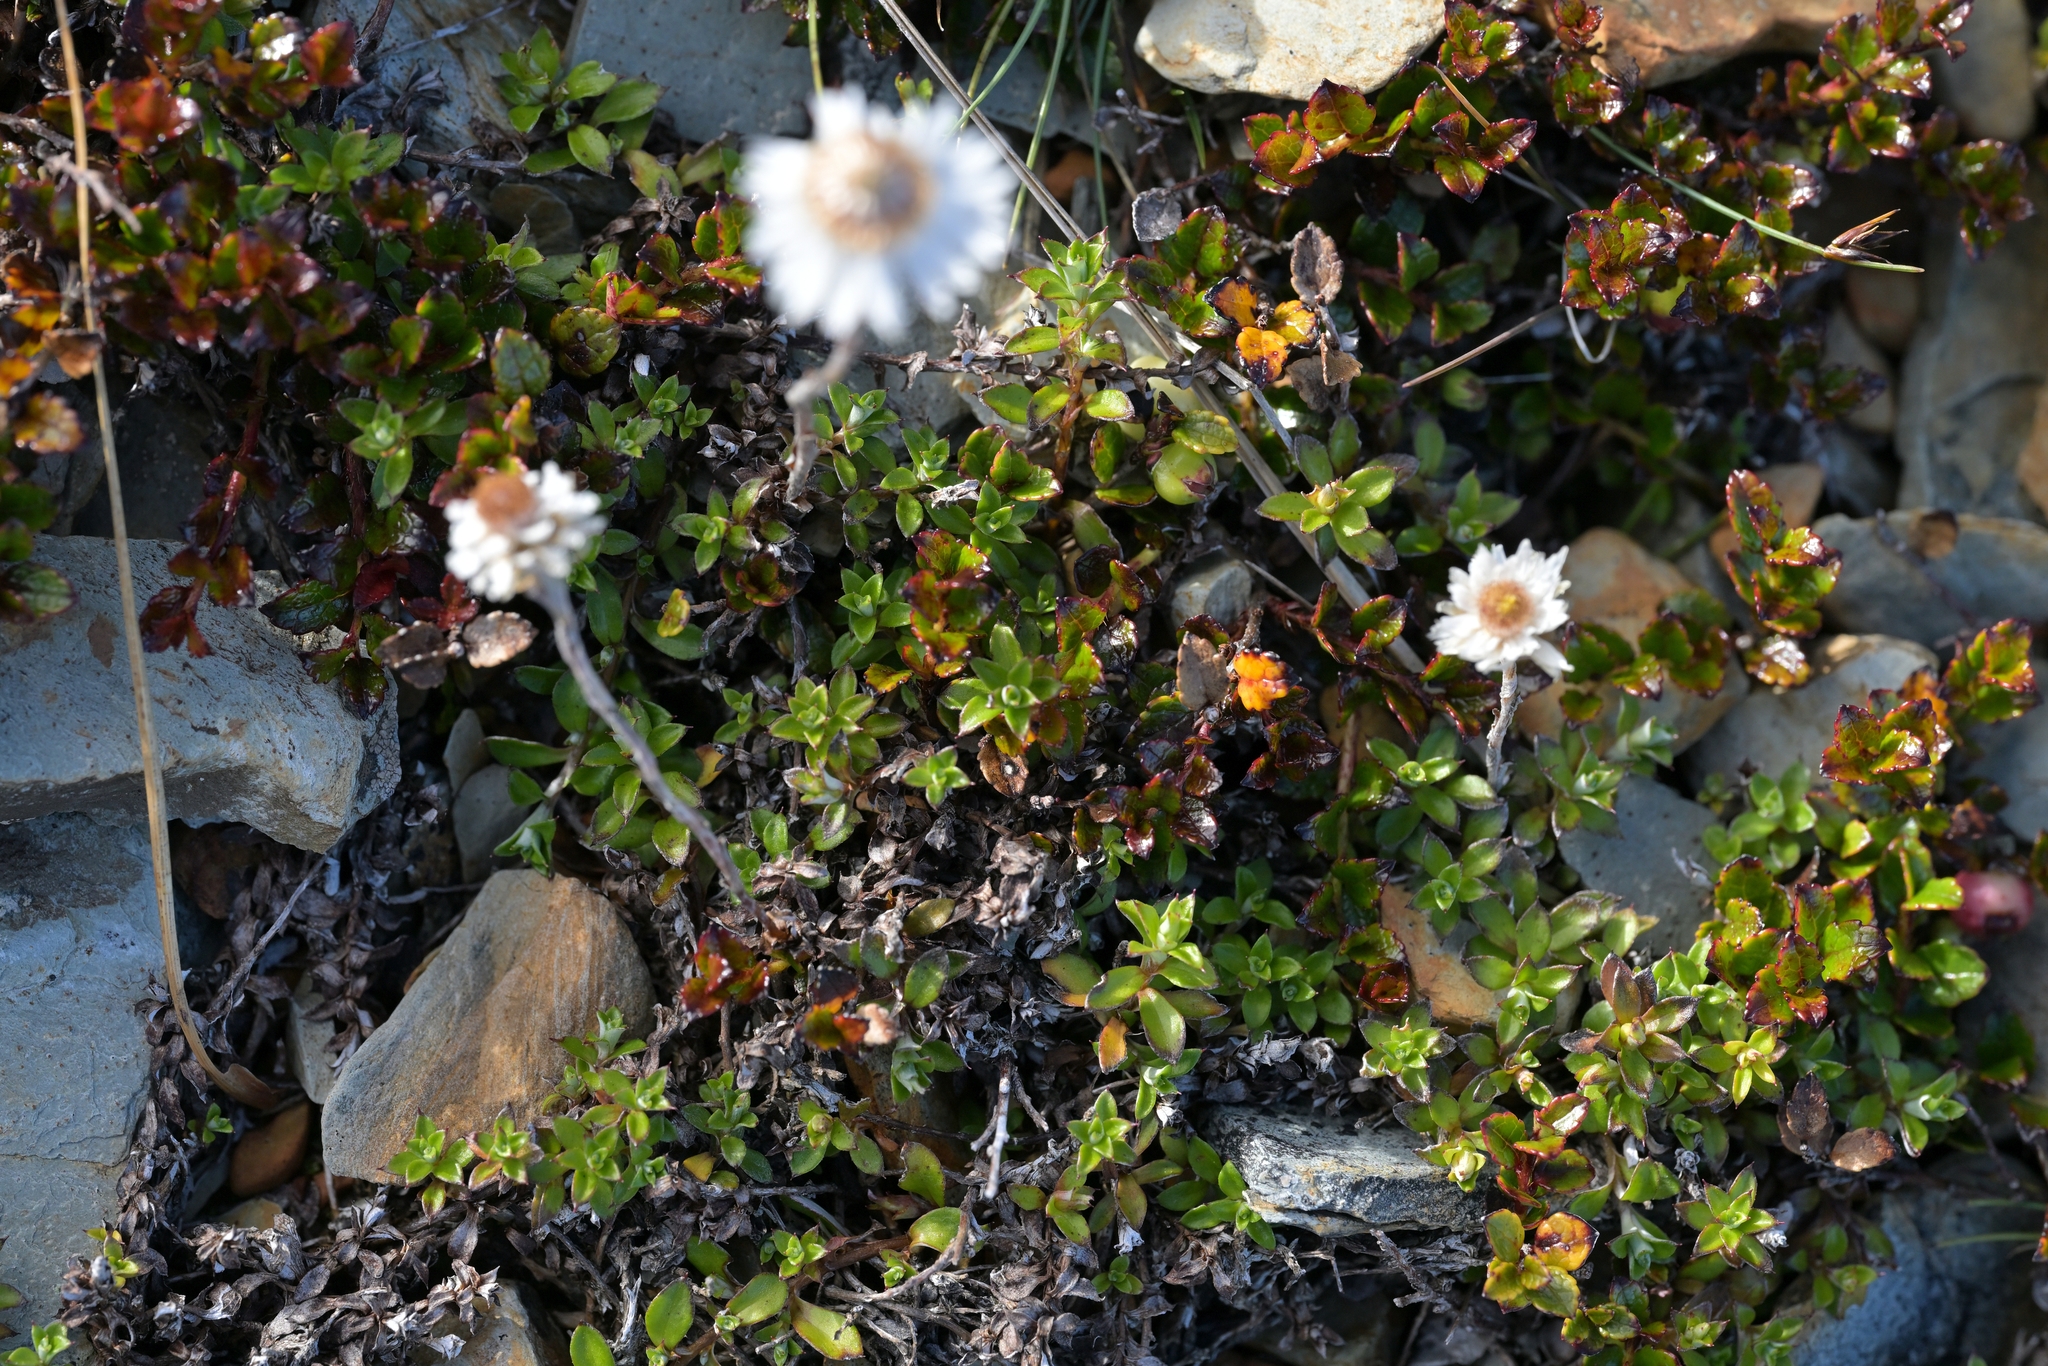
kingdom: Plantae
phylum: Tracheophyta
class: Magnoliopsida
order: Asterales
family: Asteraceae
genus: Anaphalioides
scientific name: Anaphalioides bellidioides
